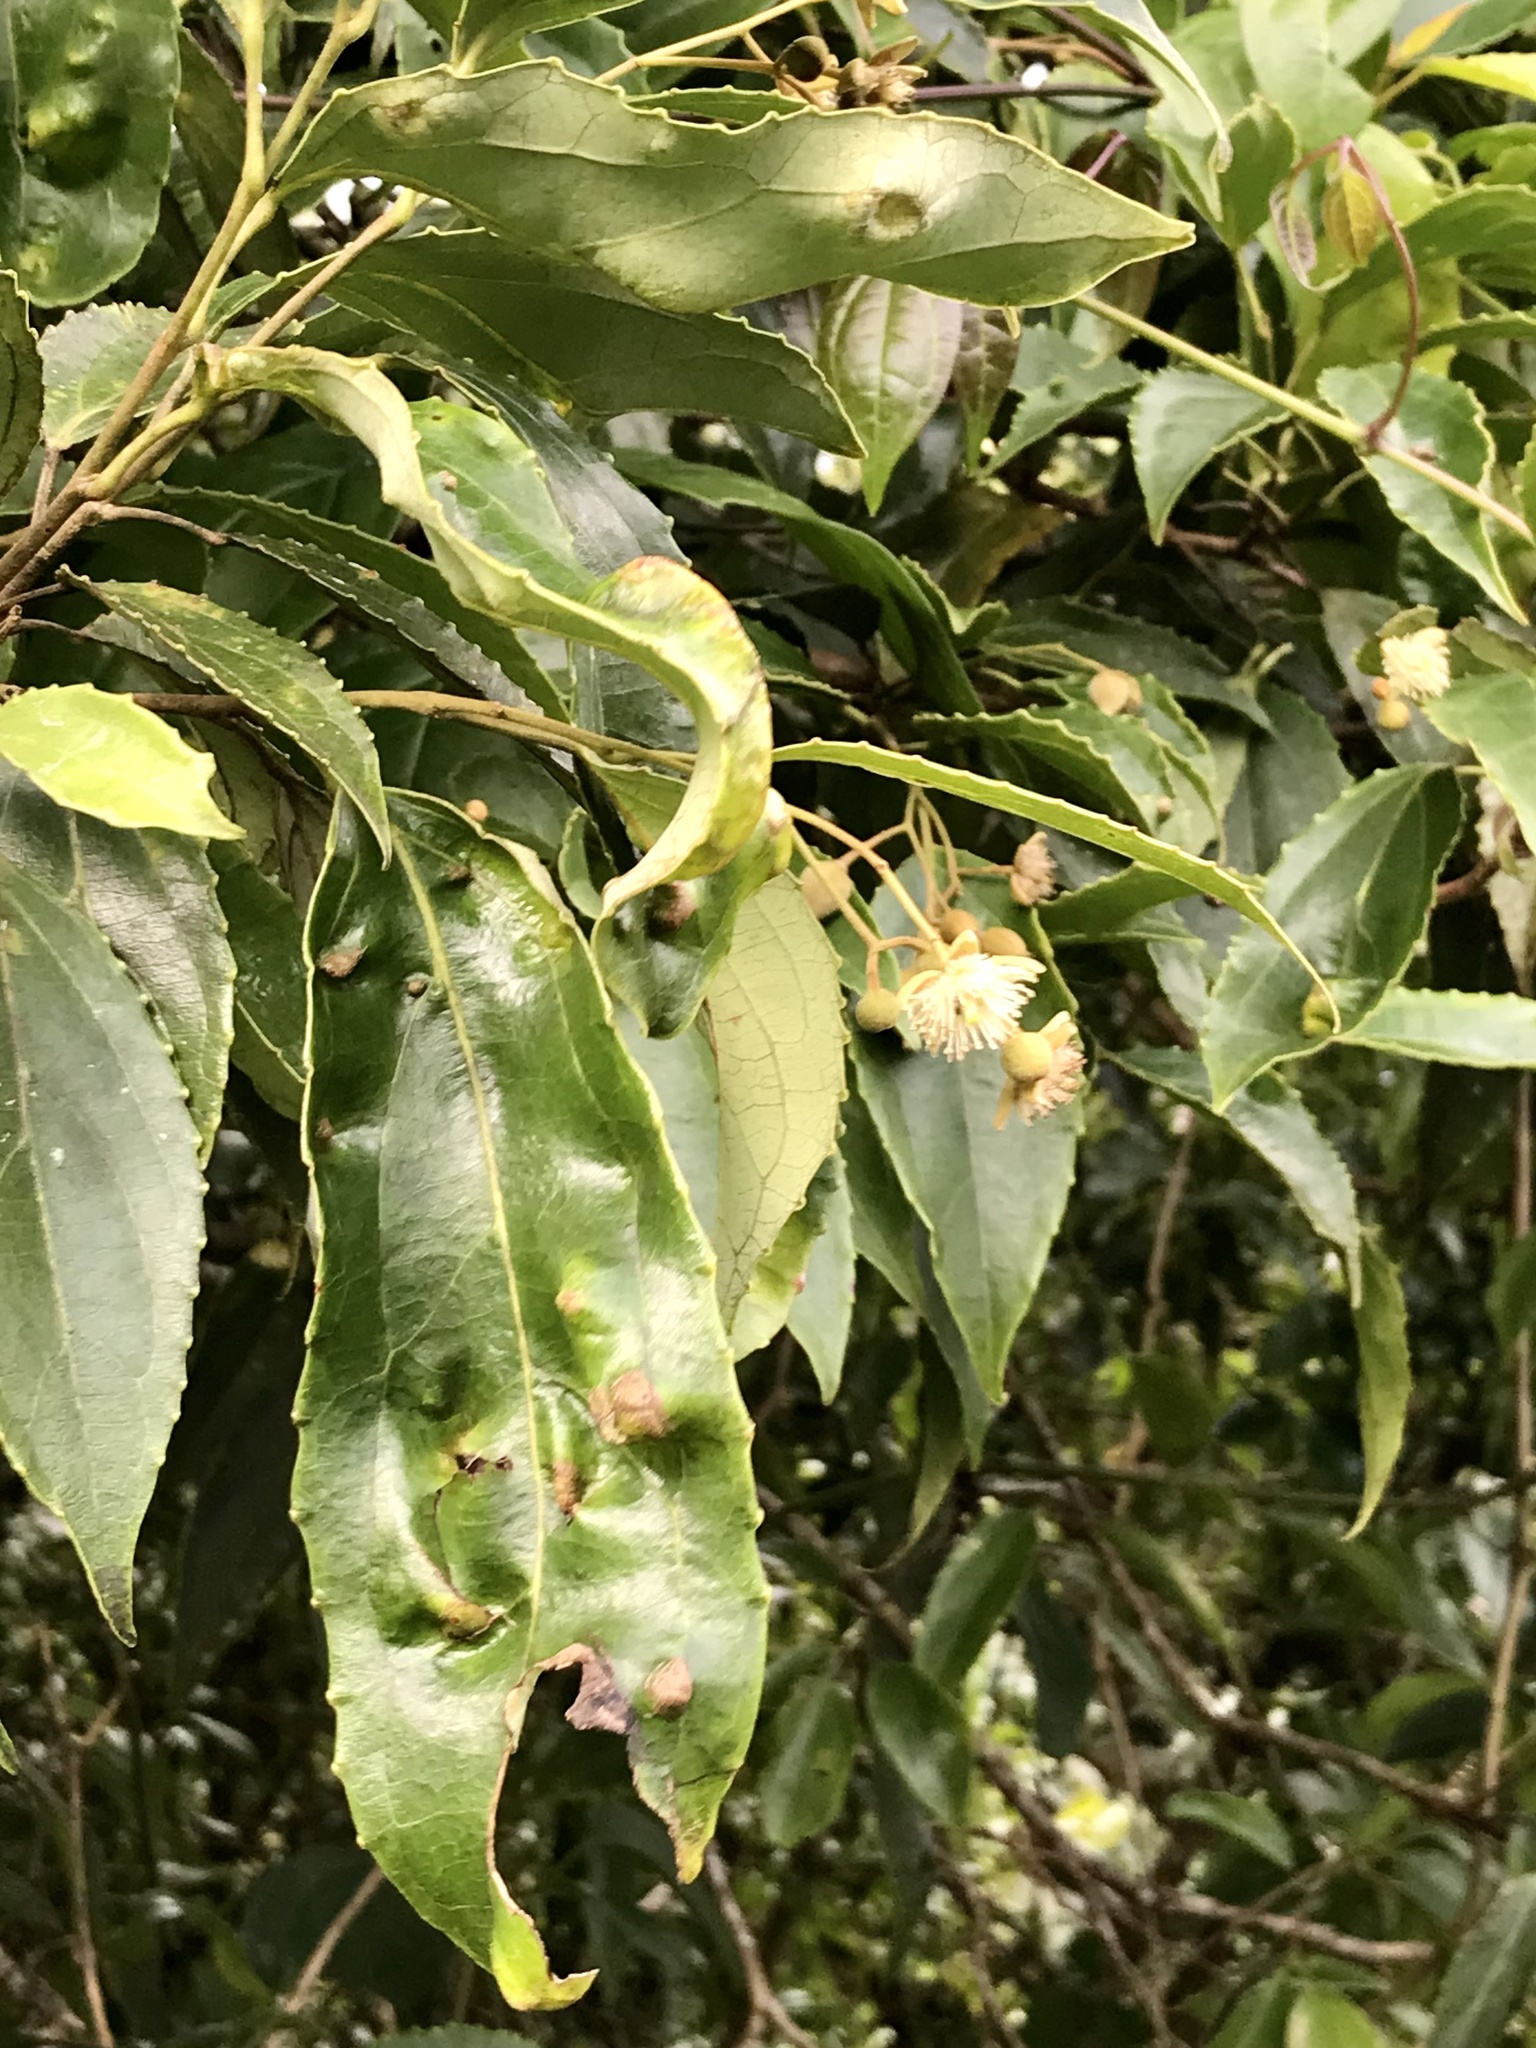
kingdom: Plantae
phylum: Tracheophyta
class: Magnoliopsida
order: Malpighiales
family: Salicaceae
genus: Macrohasseltia
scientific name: Macrohasseltia macroterantha
